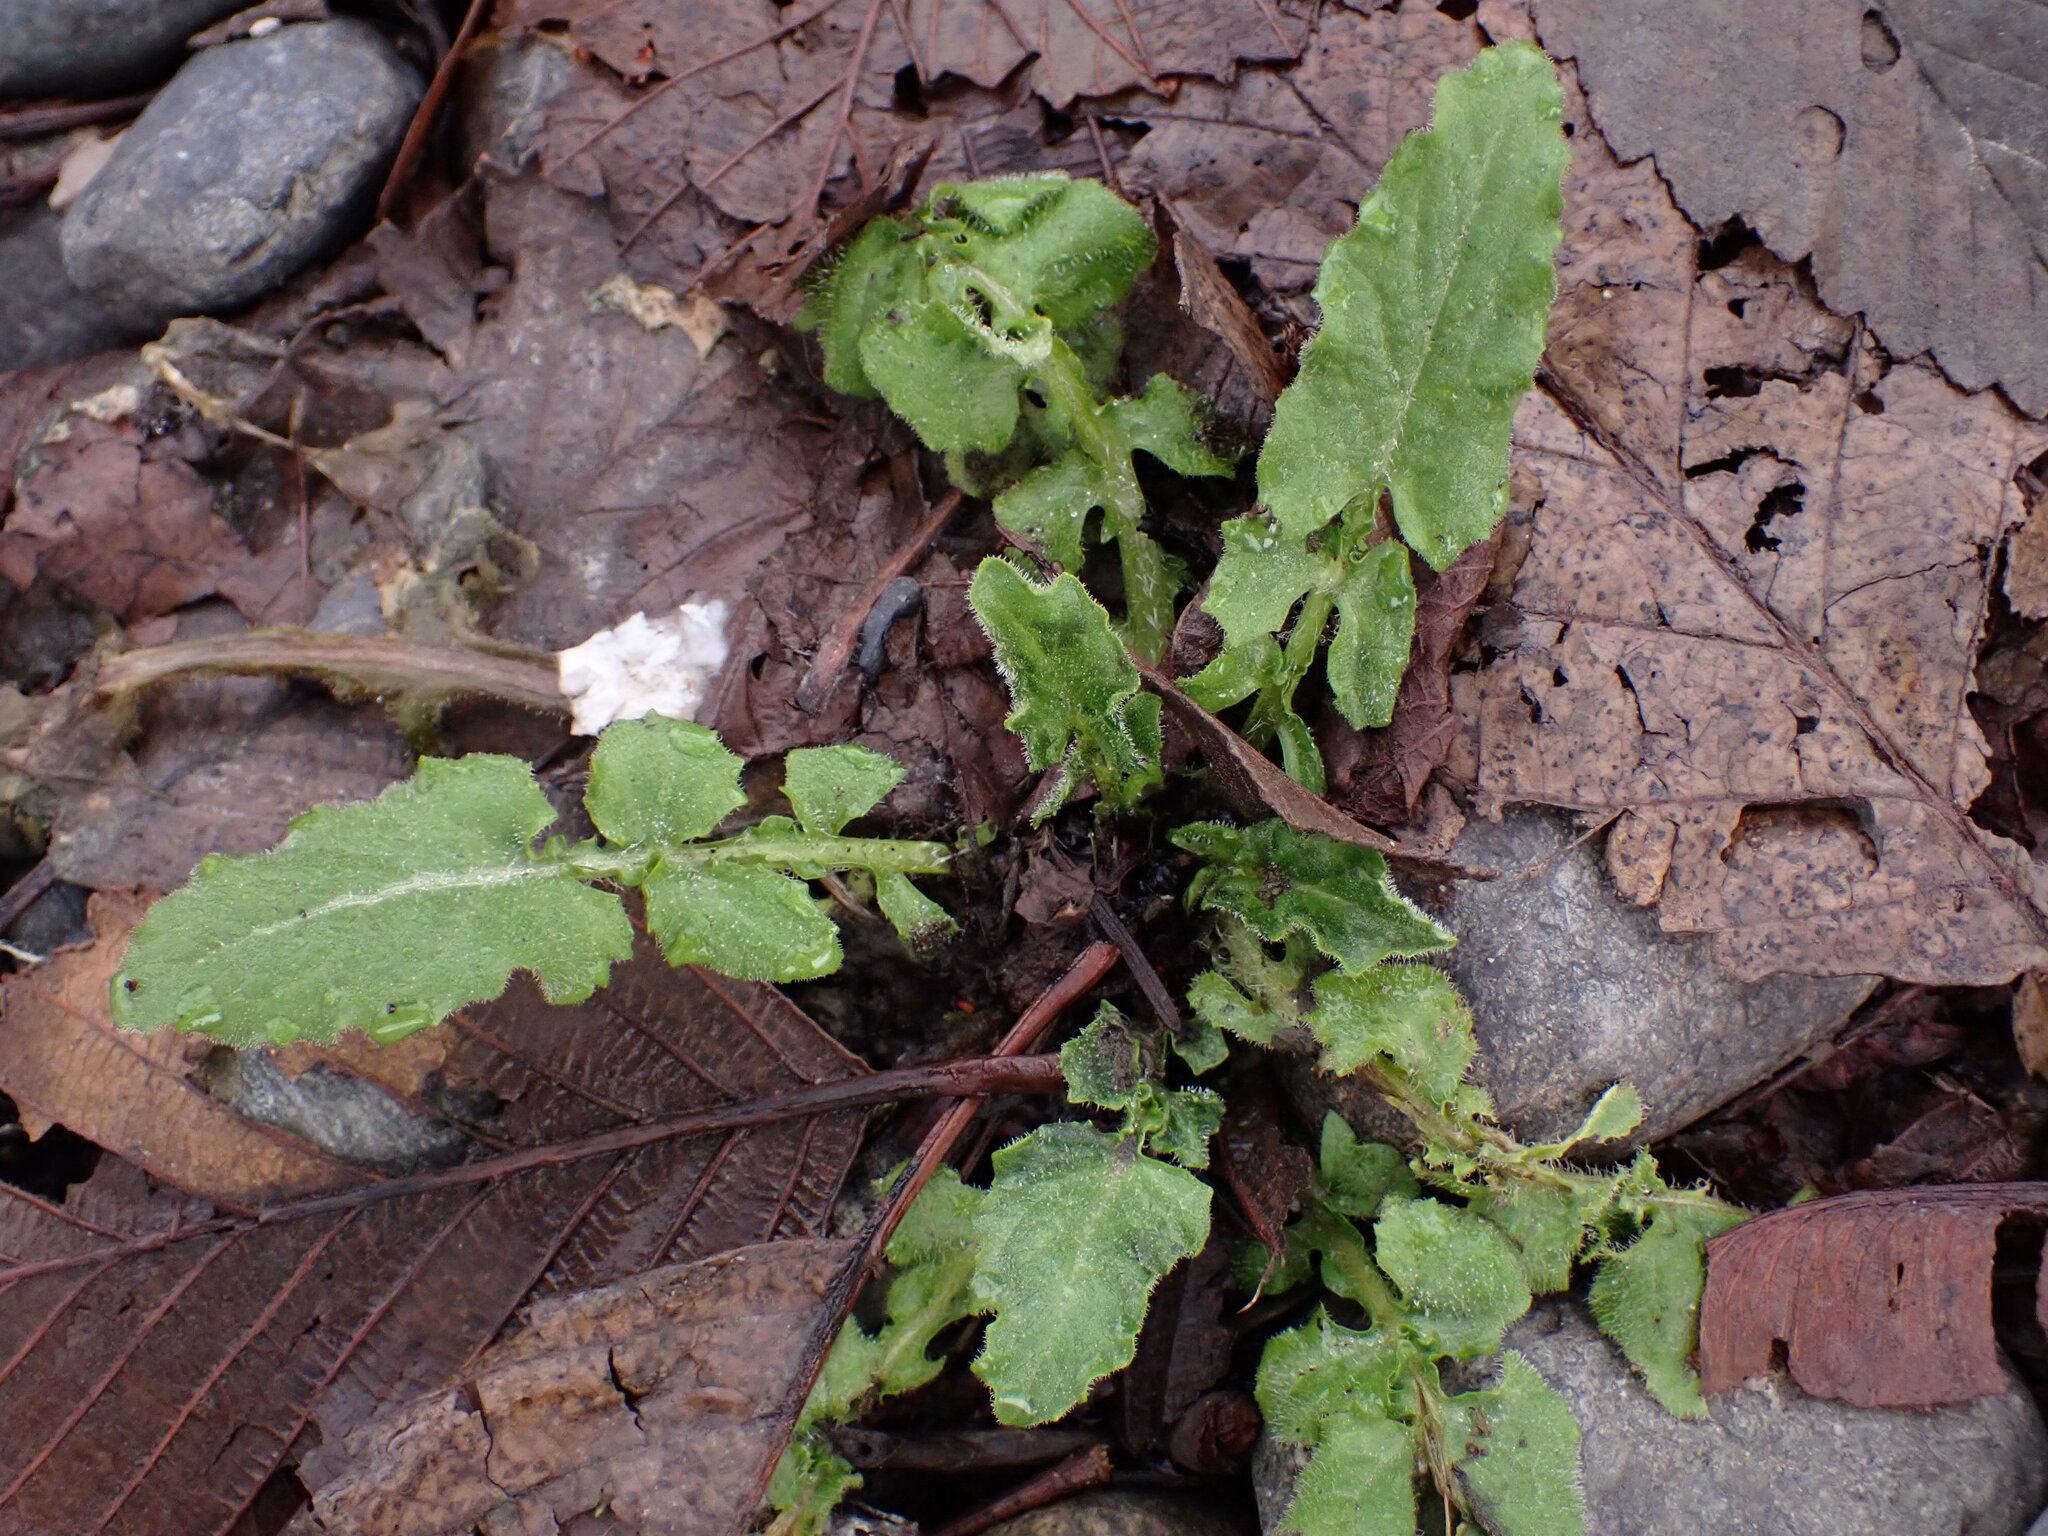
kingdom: Plantae
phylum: Tracheophyta
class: Magnoliopsida
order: Asterales
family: Asteraceae
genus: Lapsana
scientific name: Lapsana communis
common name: Nipplewort
